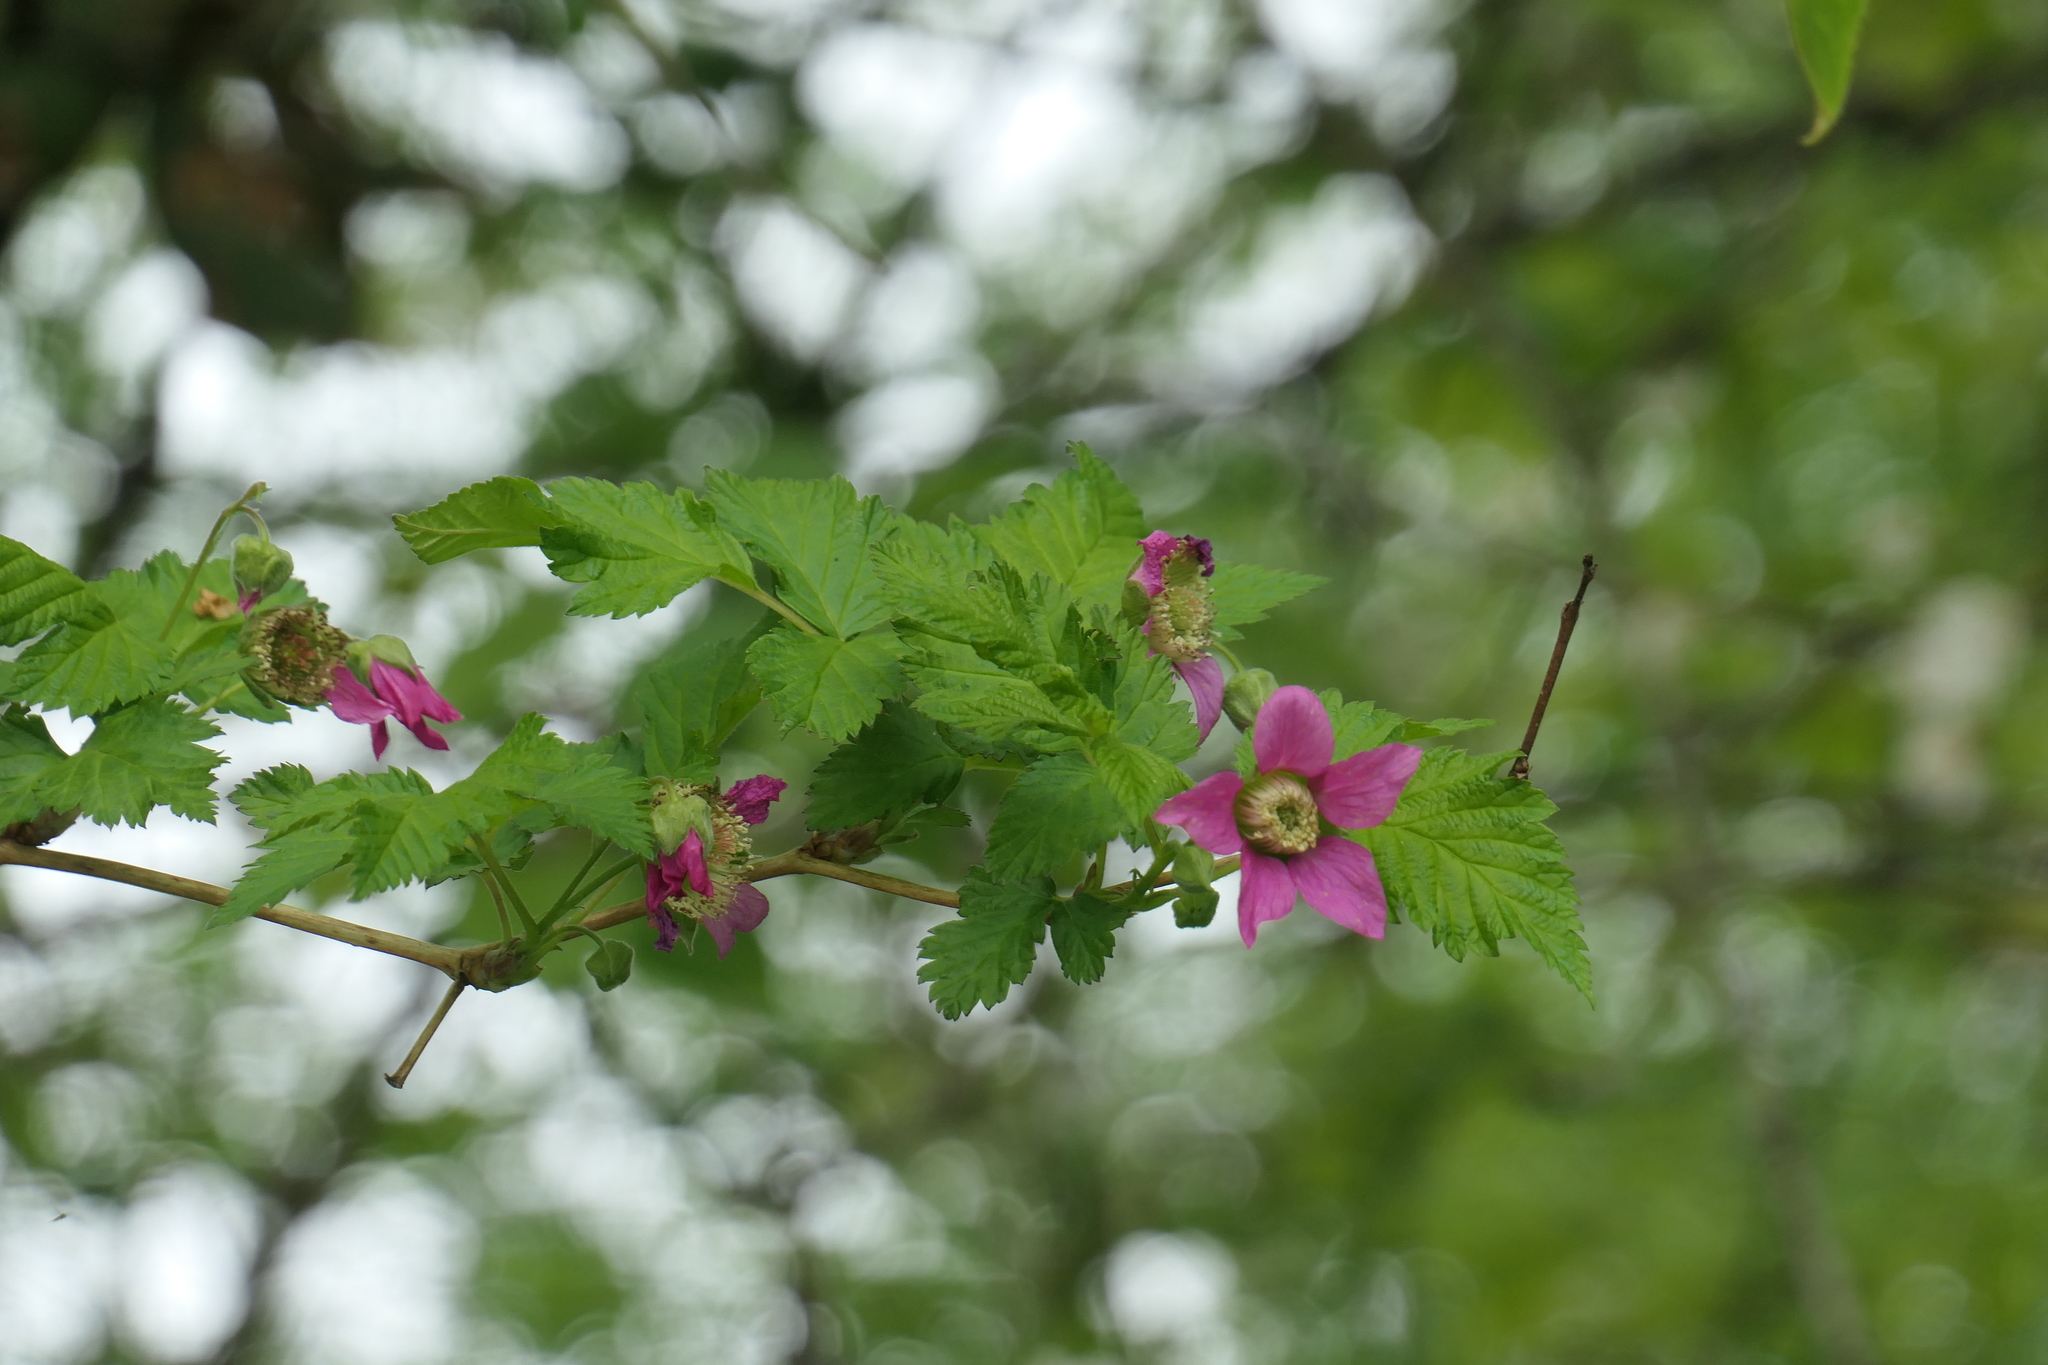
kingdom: Plantae
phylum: Tracheophyta
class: Magnoliopsida
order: Rosales
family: Rosaceae
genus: Rubus
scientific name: Rubus spectabilis
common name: Salmonberry
